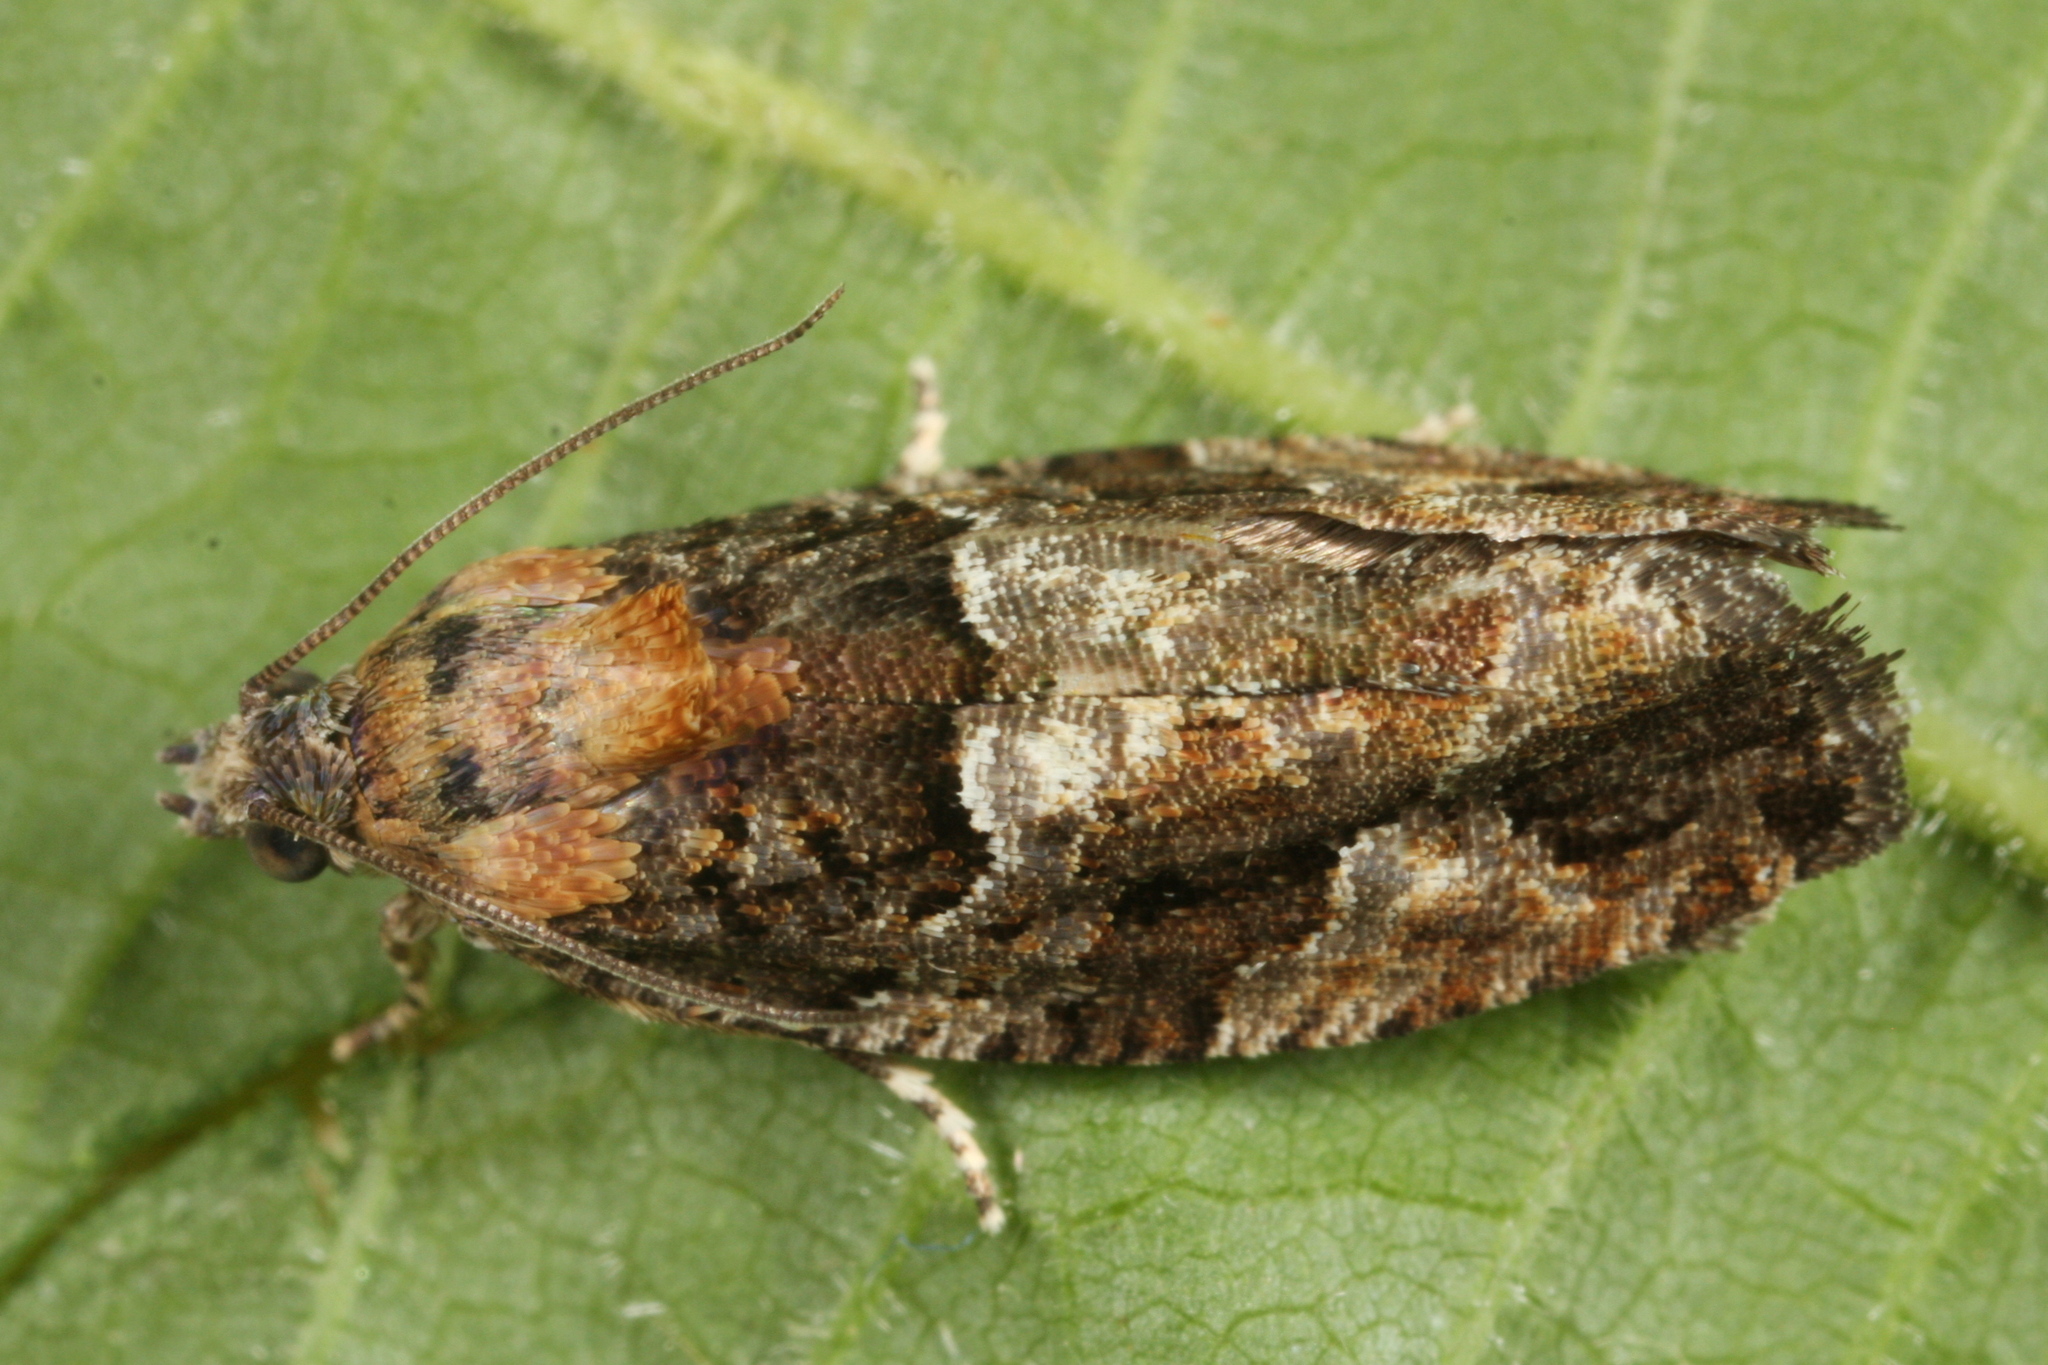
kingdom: Animalia
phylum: Arthropoda
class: Insecta
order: Lepidoptera
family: Tortricidae
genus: Eudemis
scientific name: Eudemis profundana
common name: Diamond-back marble
